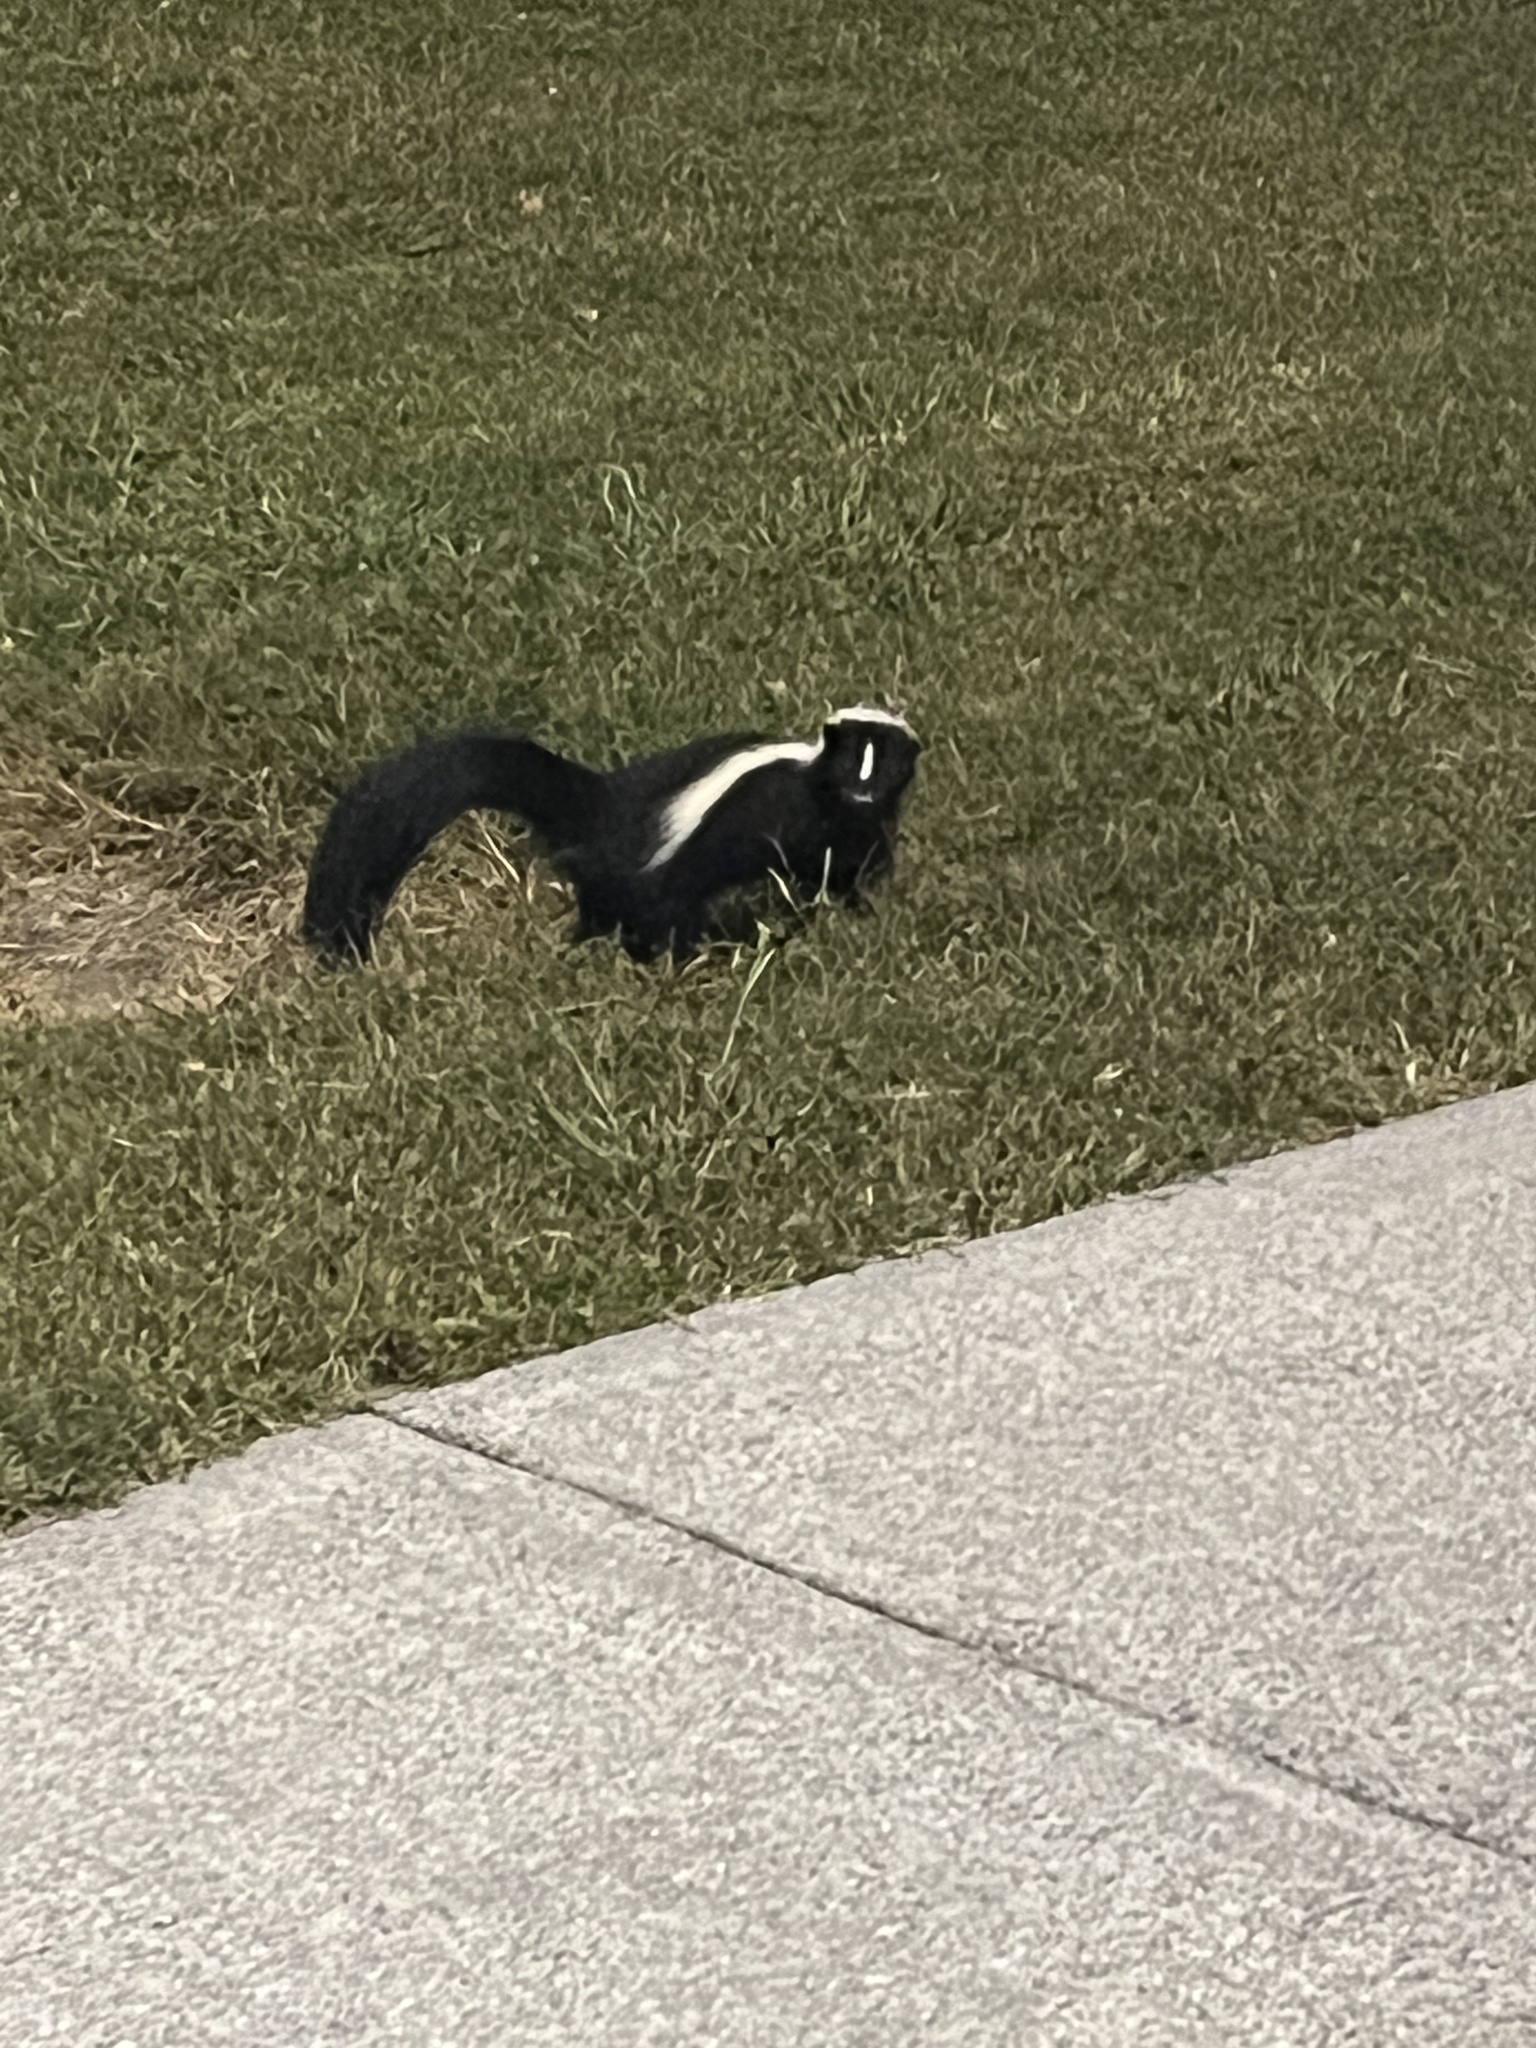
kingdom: Animalia
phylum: Chordata
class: Mammalia
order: Carnivora
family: Mephitidae
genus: Mephitis
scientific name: Mephitis mephitis
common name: Striped skunk
